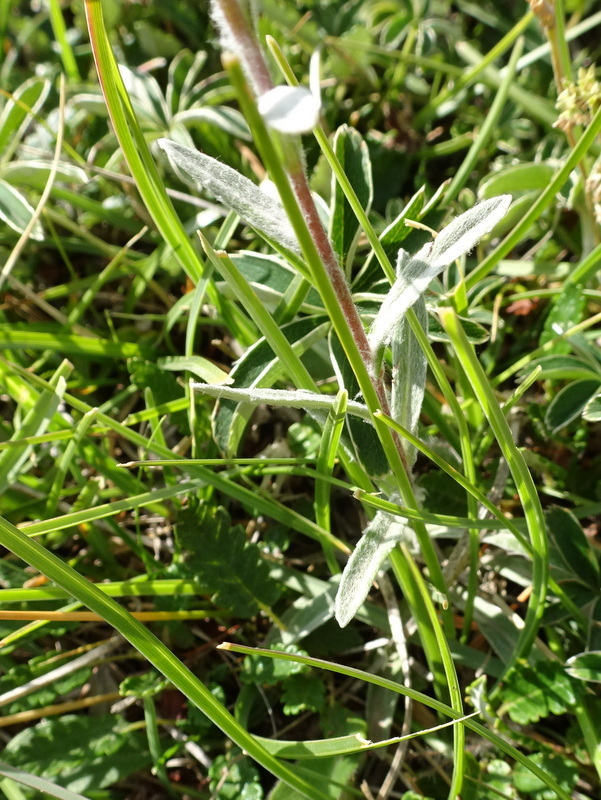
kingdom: Plantae
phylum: Tracheophyta
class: Magnoliopsida
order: Asterales
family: Asteraceae
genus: Leontopodium
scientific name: Leontopodium nivale
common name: Edelweiss
